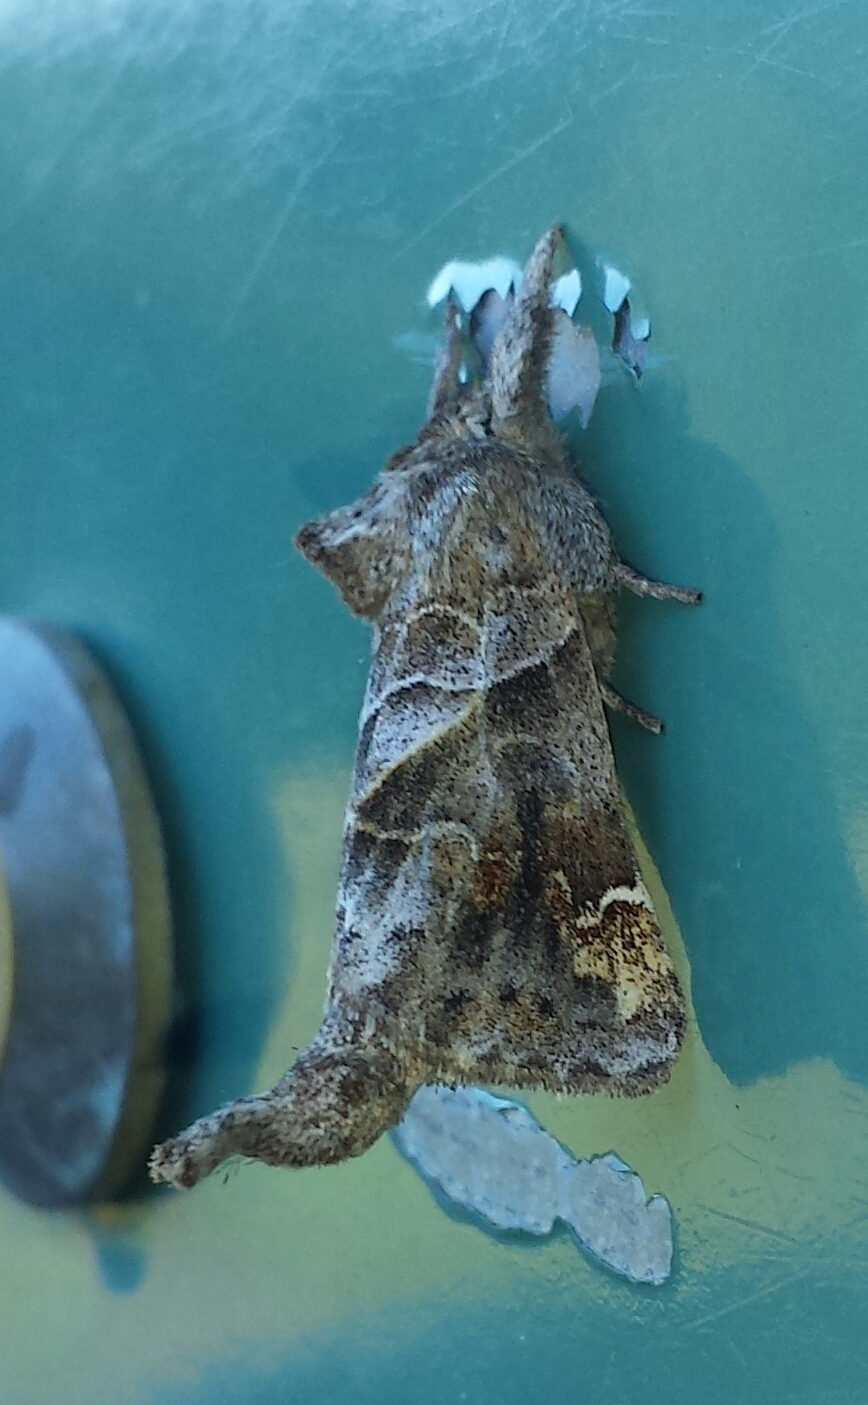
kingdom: Animalia
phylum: Arthropoda
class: Insecta
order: Lepidoptera
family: Notodontidae
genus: Clostera
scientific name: Clostera strigosa
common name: Striped chocolate-tip moth
